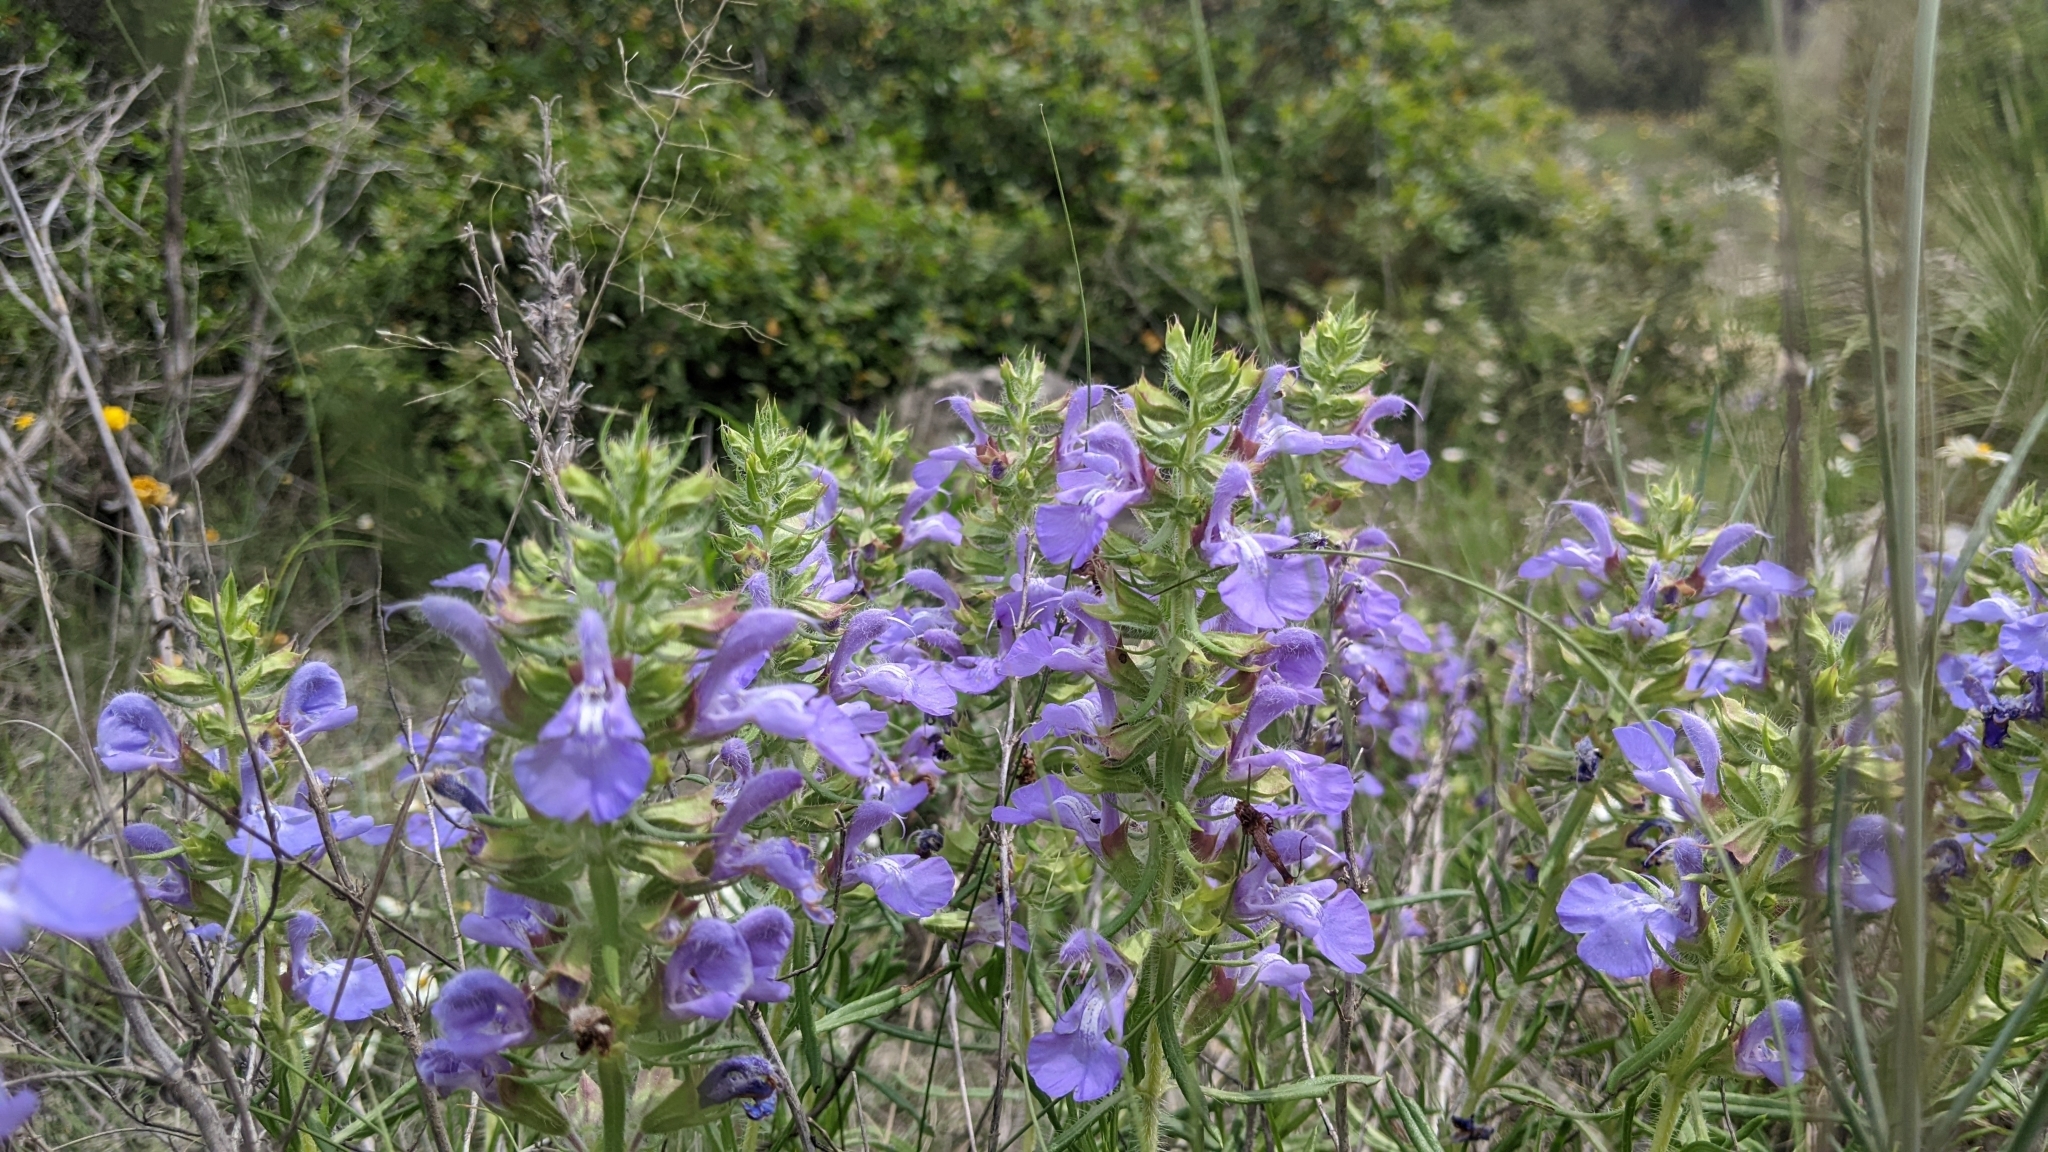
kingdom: Plantae
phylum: Tracheophyta
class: Magnoliopsida
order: Lamiales
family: Lamiaceae
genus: Salvia
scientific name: Salvia engelmannii
